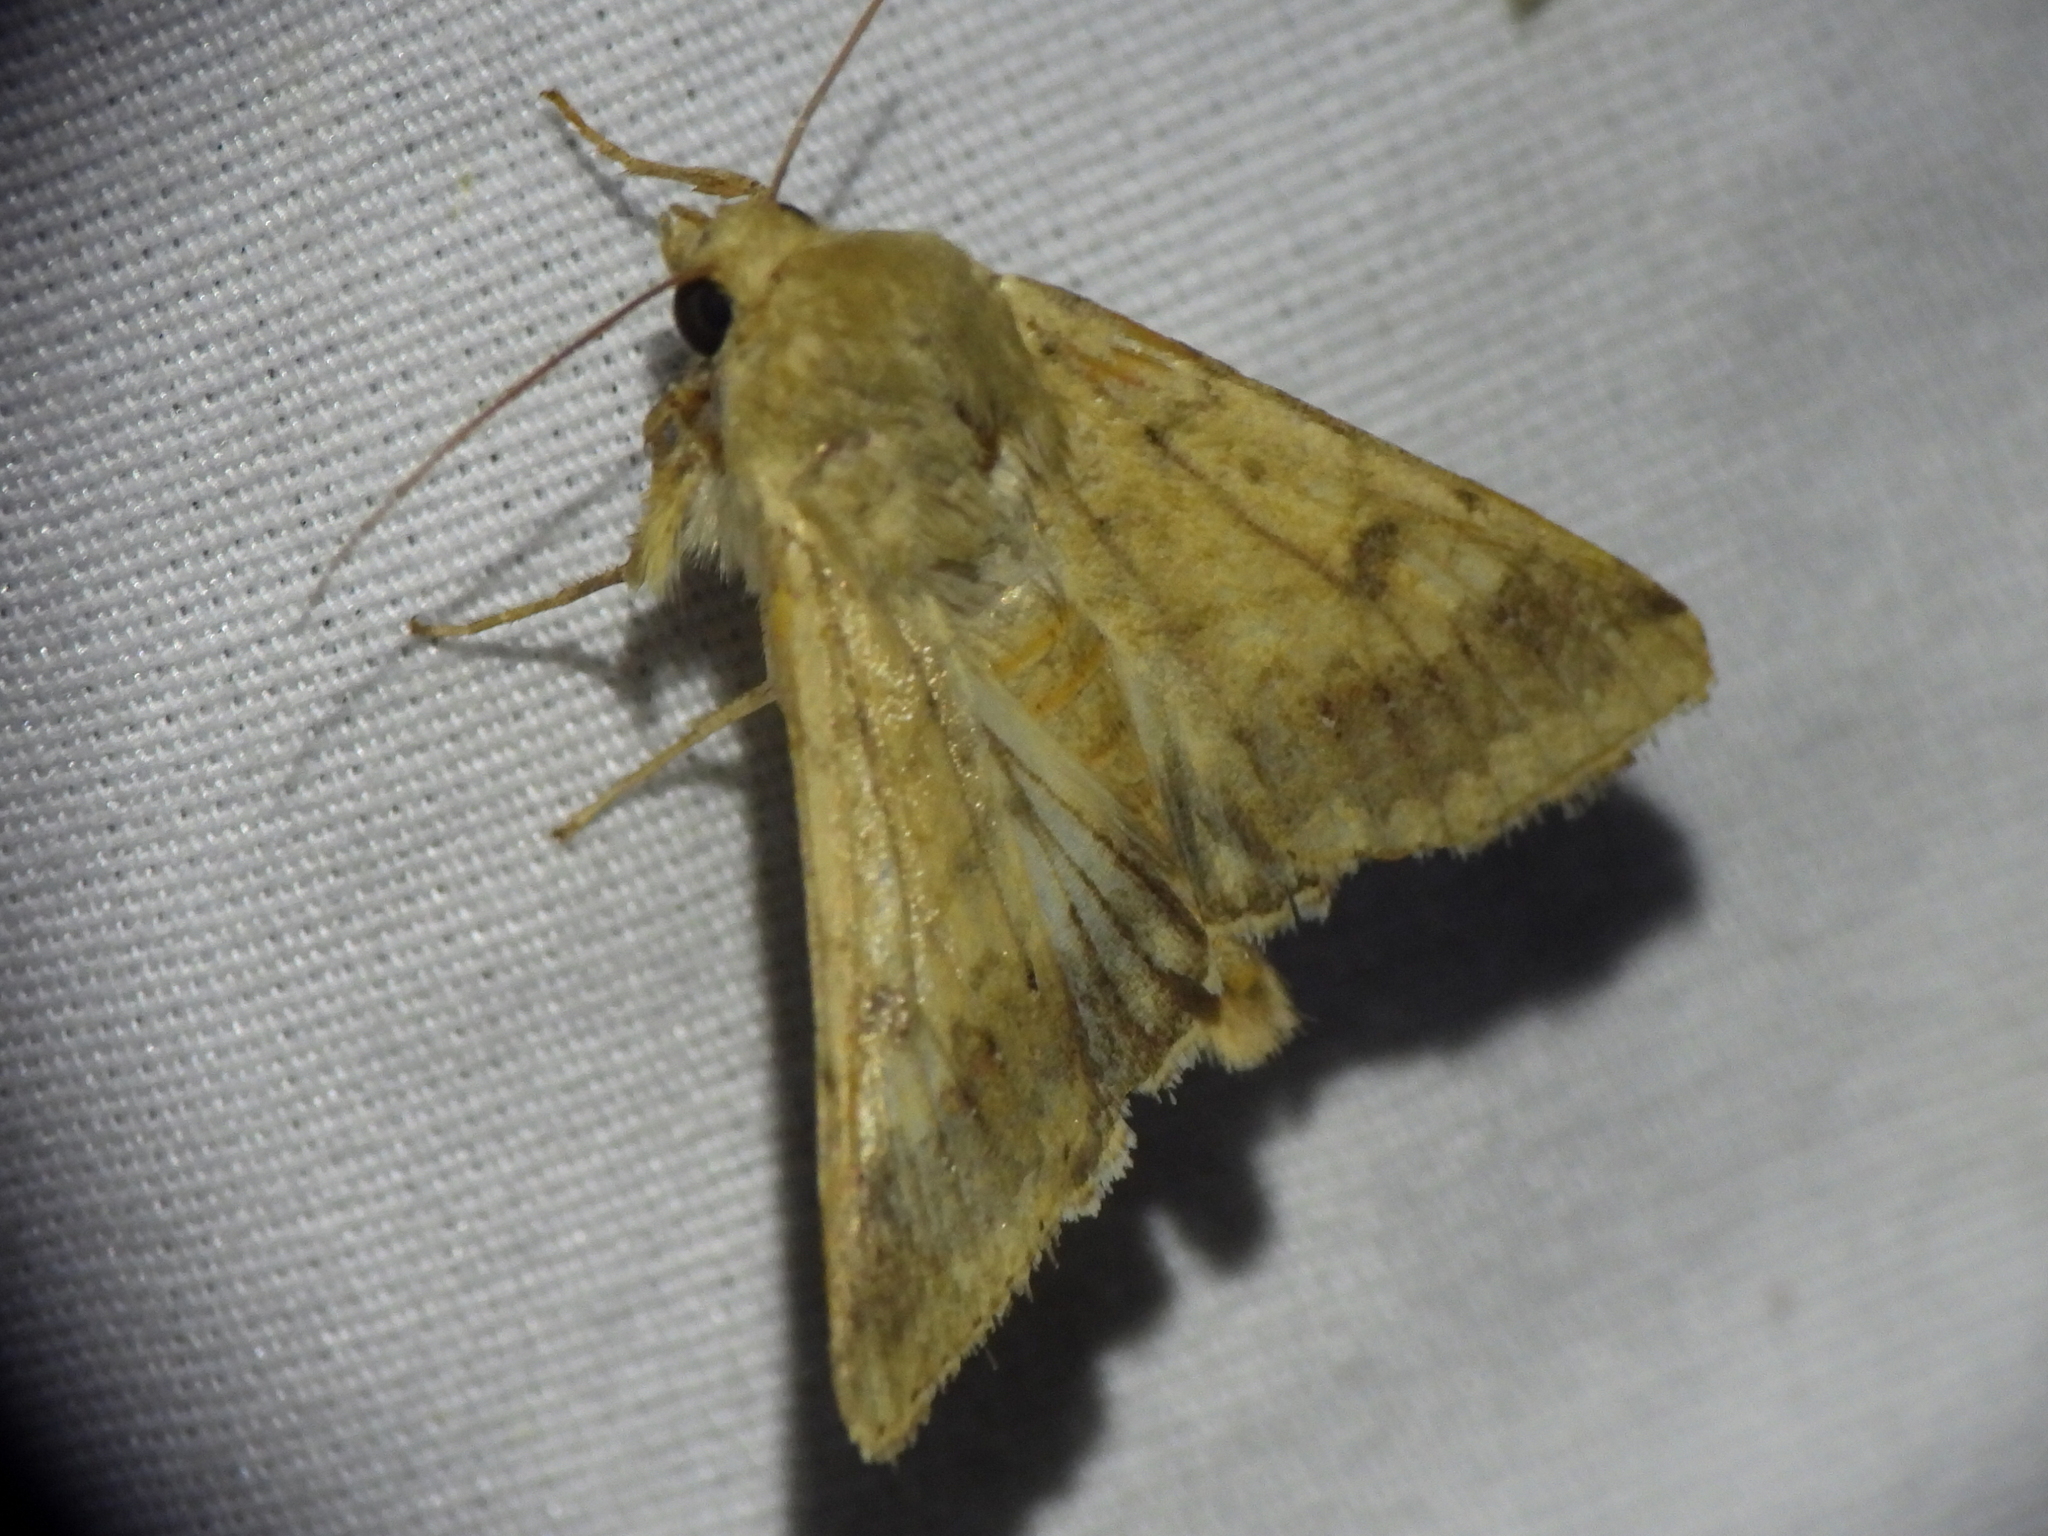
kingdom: Animalia
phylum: Arthropoda
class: Insecta
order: Lepidoptera
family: Noctuidae
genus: Helicoverpa
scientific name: Helicoverpa zea
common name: Bollworm
